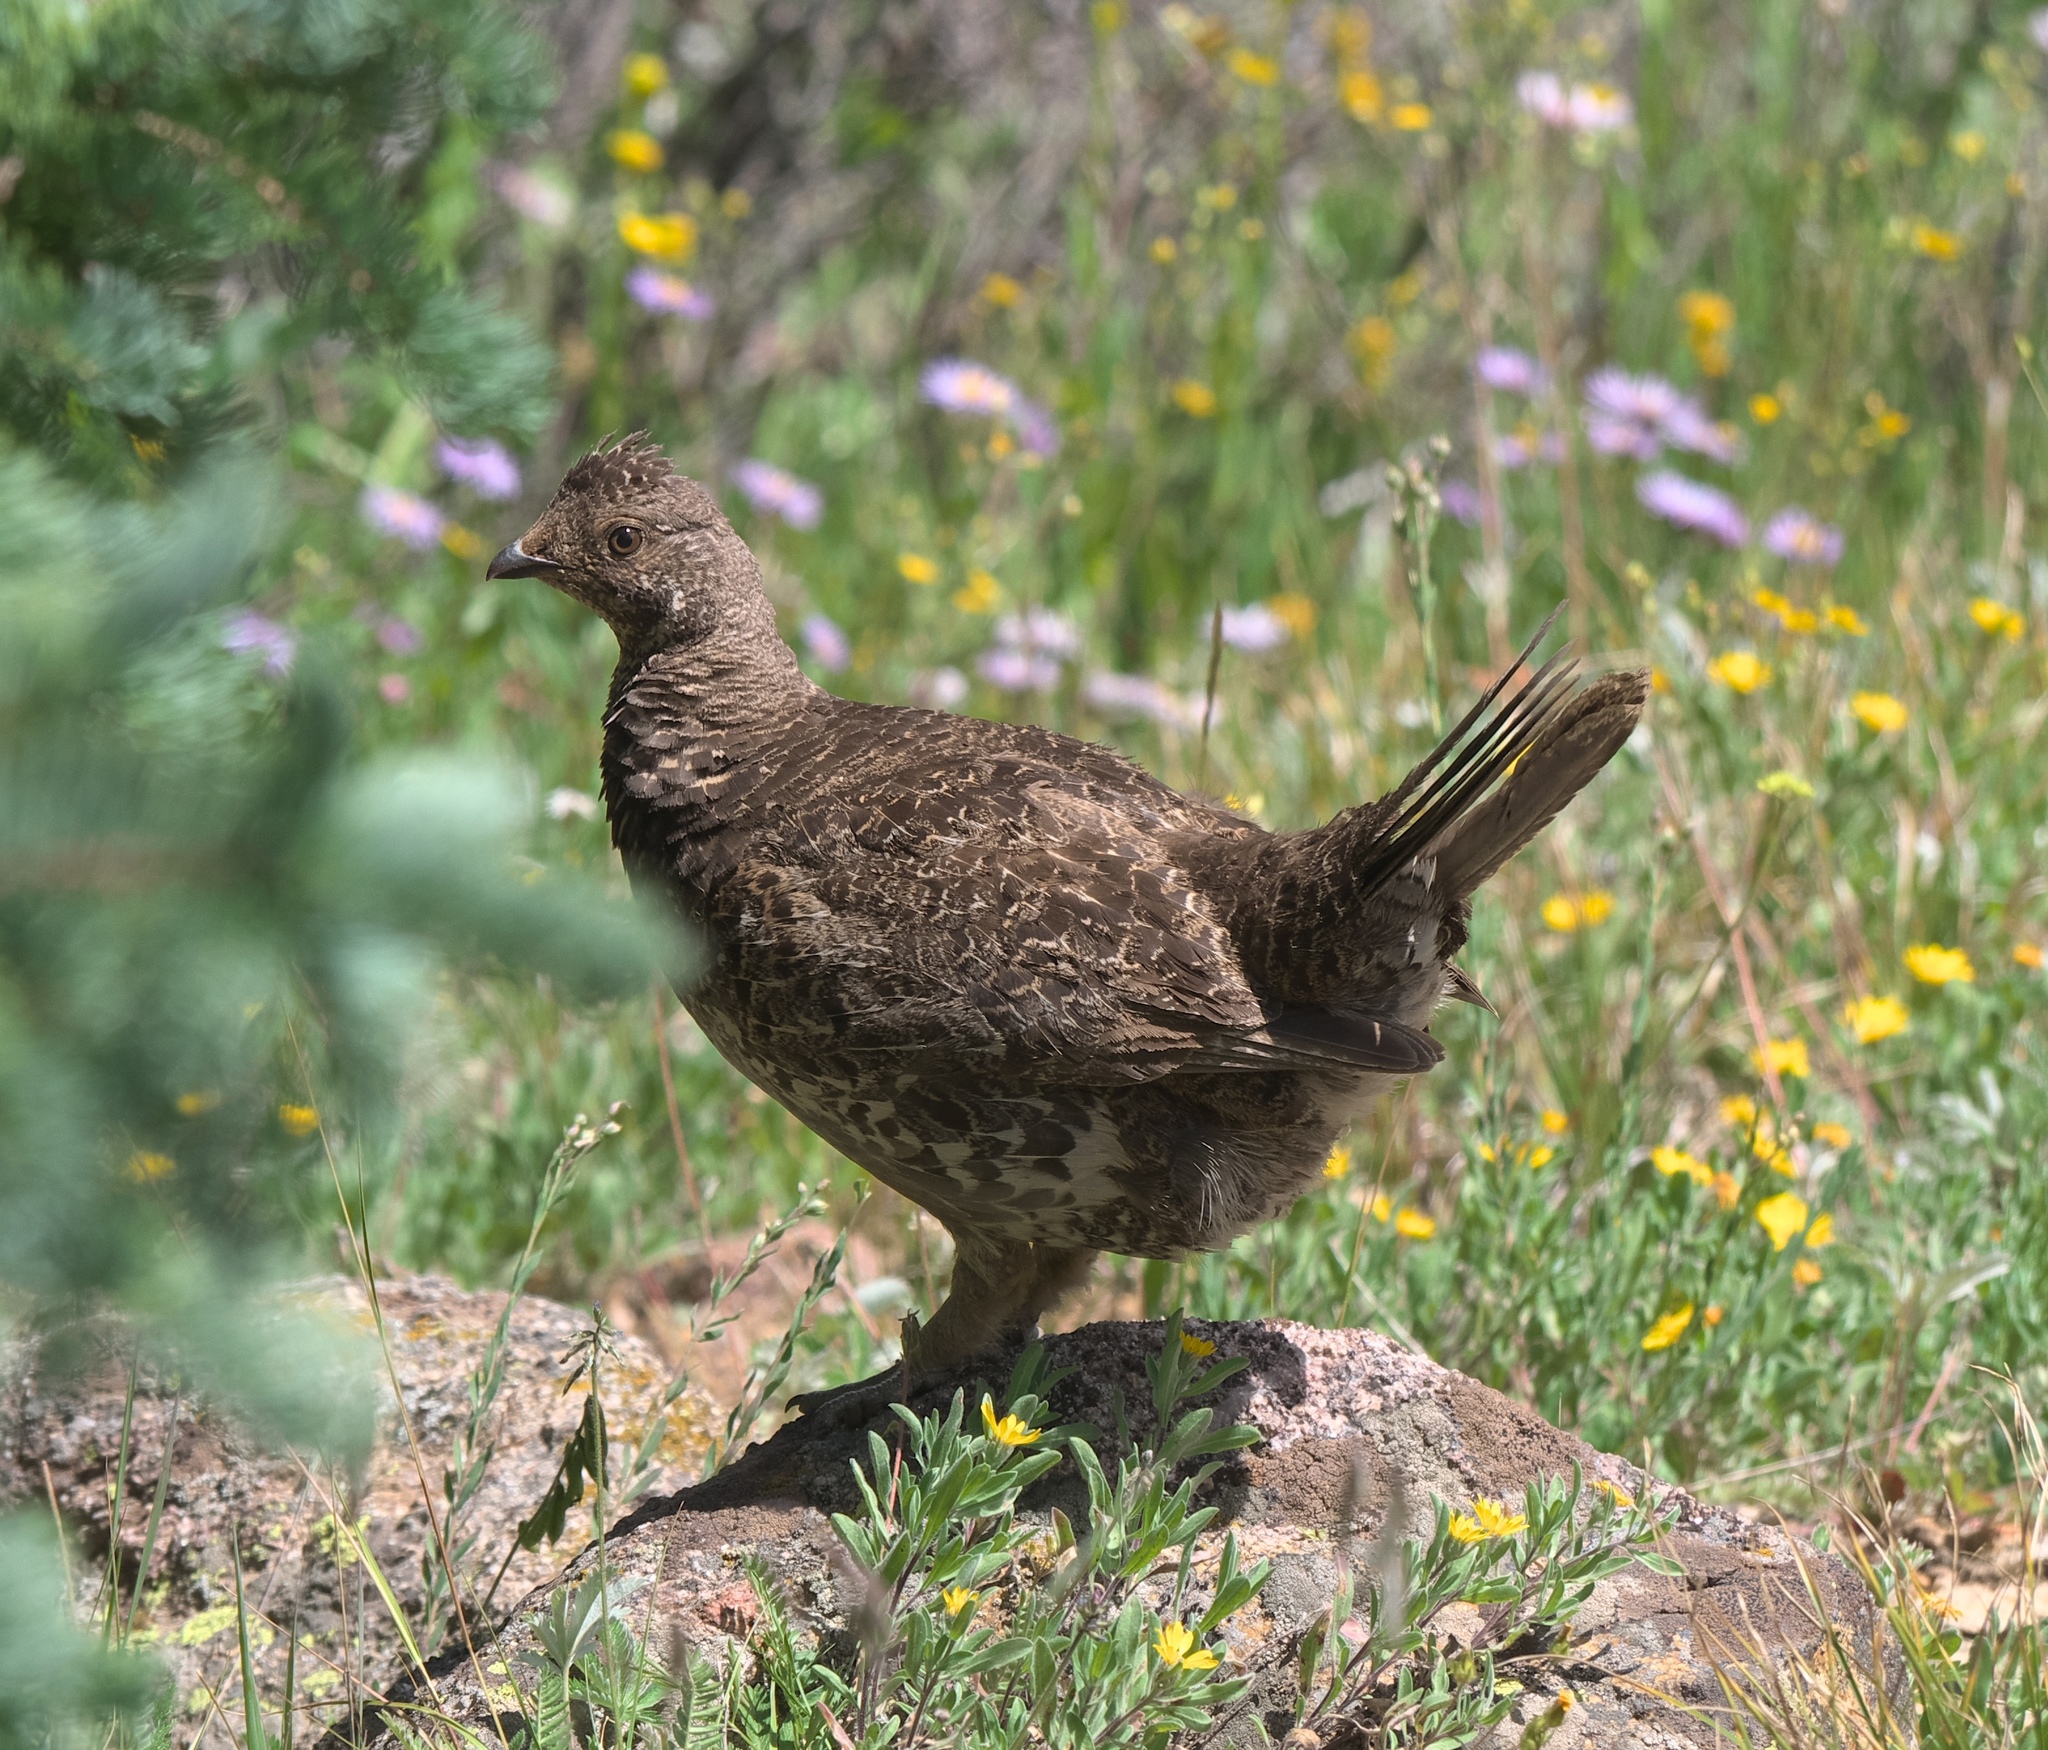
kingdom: Animalia
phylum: Chordata
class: Aves
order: Galliformes
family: Phasianidae
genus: Dendragapus
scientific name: Dendragapus obscurus
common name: Dusky grouse
